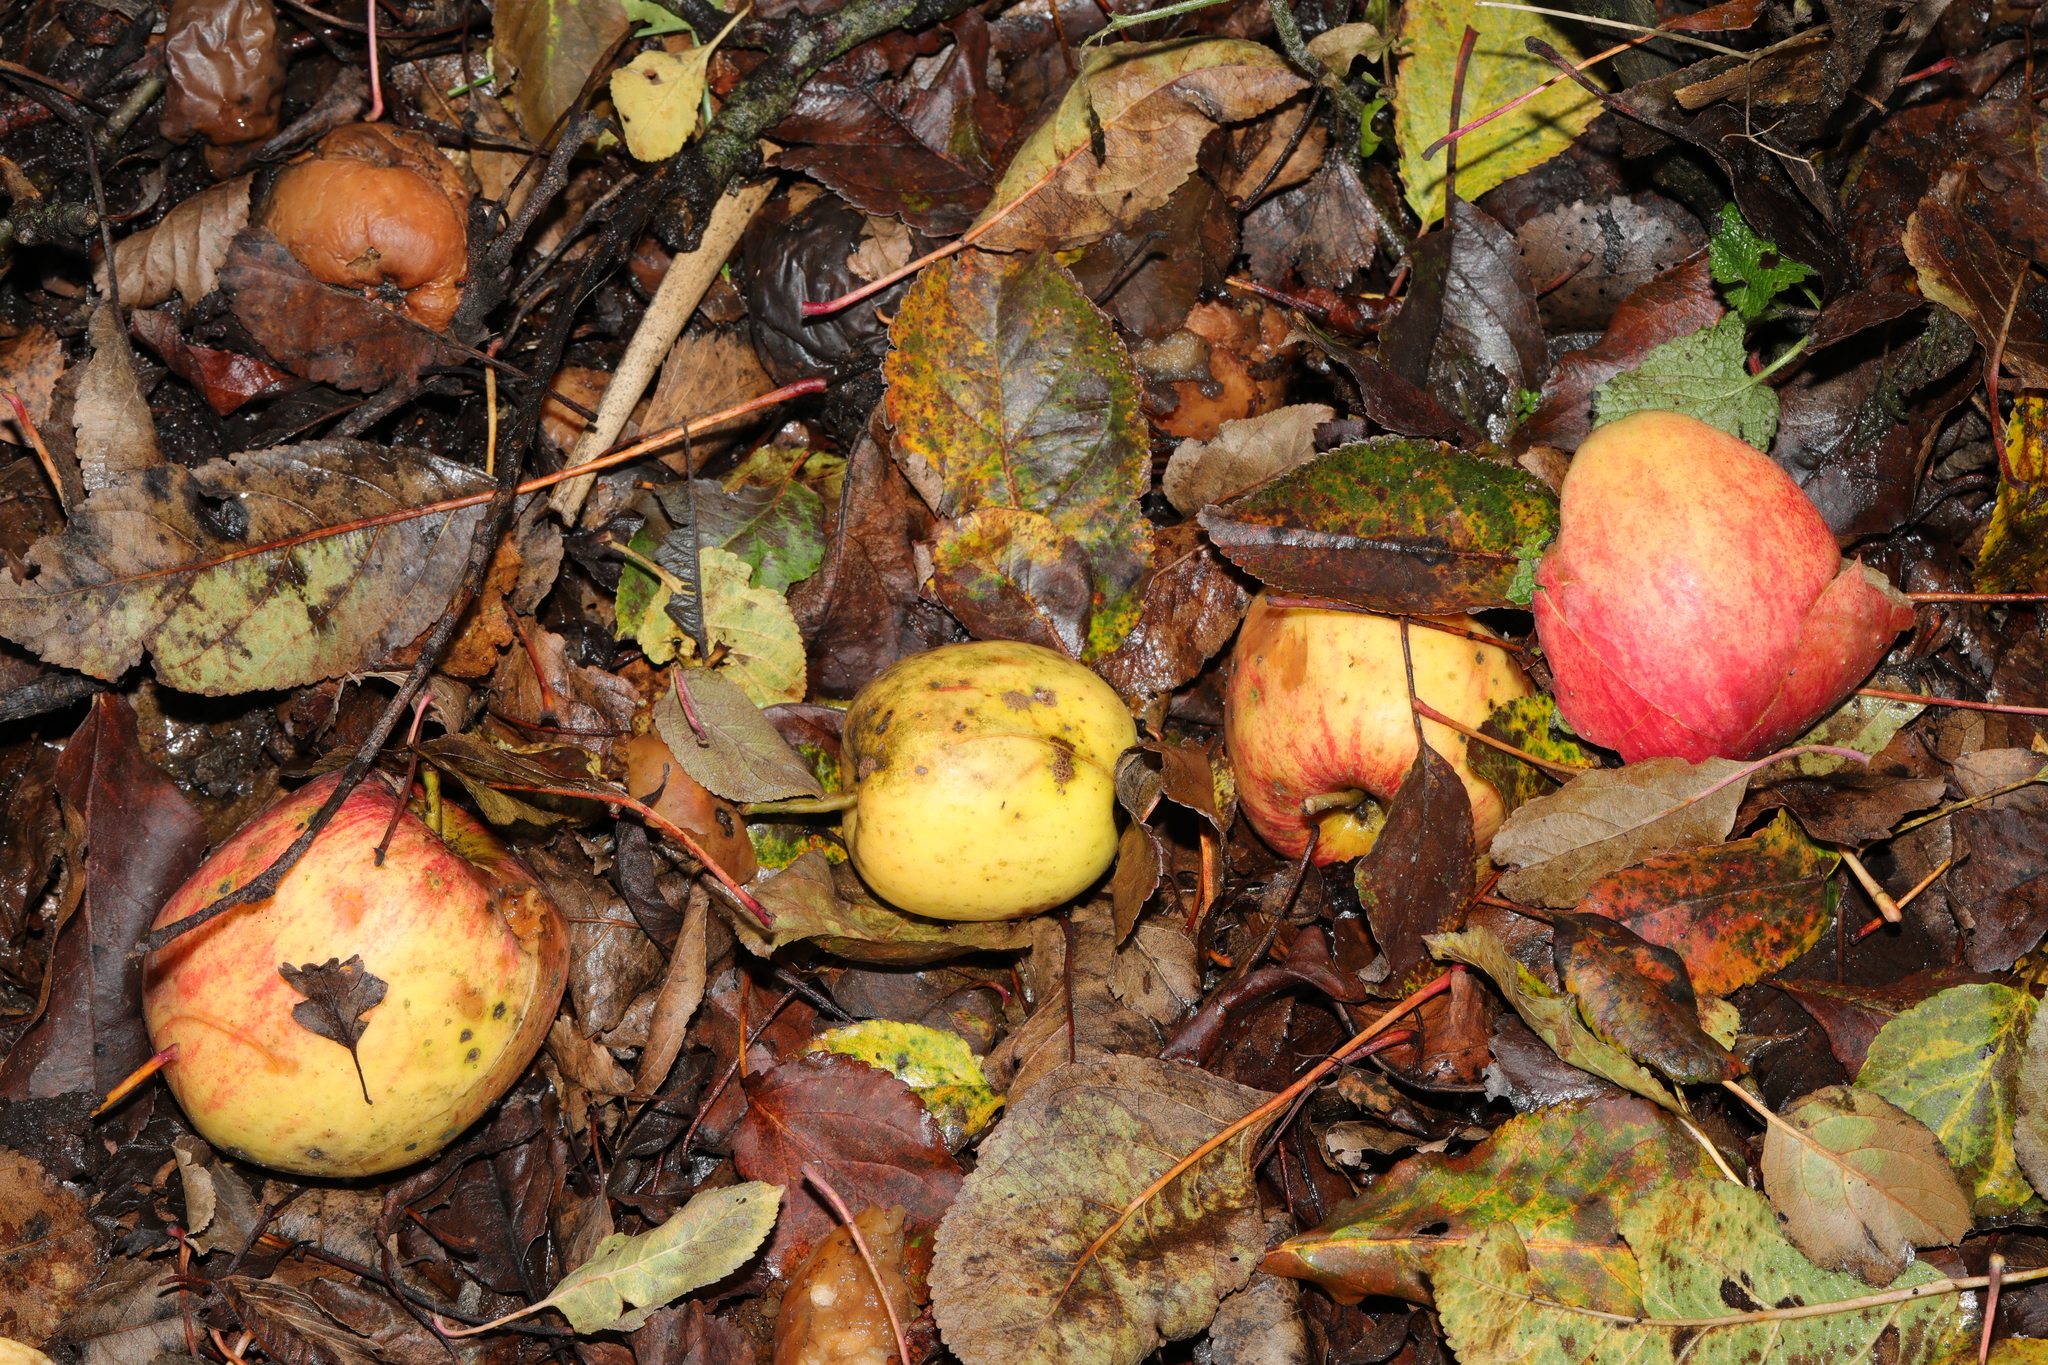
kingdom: Plantae
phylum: Tracheophyta
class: Magnoliopsida
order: Rosales
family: Rosaceae
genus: Malus
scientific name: Malus domestica
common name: Apple
